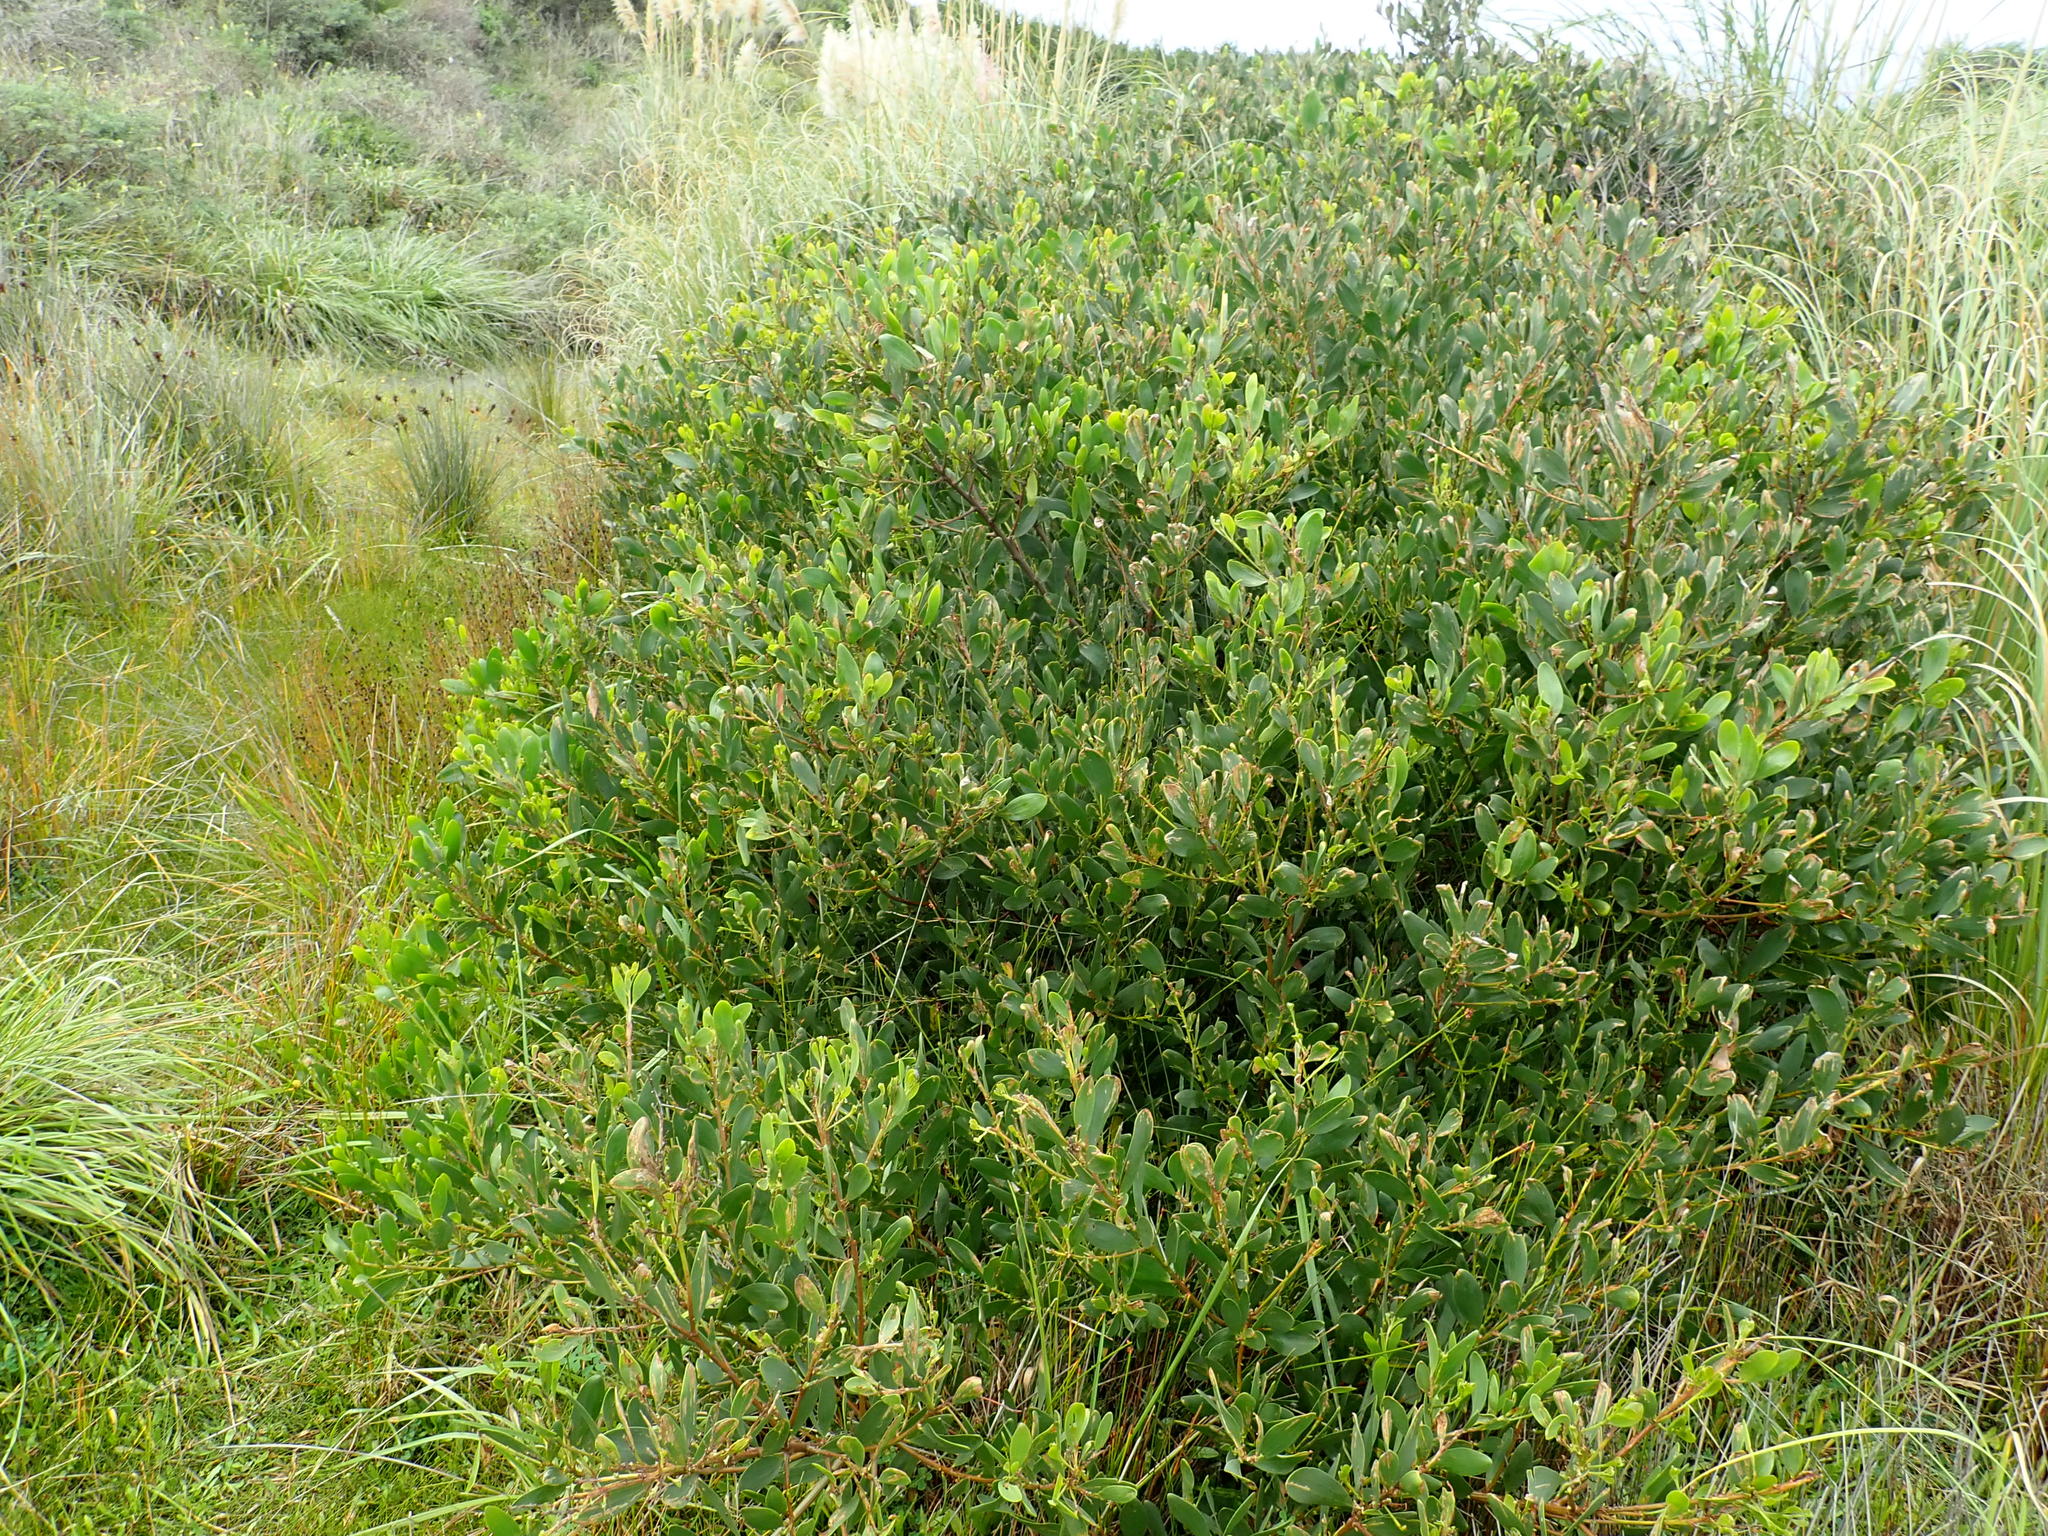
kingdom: Plantae
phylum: Tracheophyta
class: Magnoliopsida
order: Fabales
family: Fabaceae
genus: Acacia
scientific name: Acacia longifolia
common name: Sydney golden wattle
